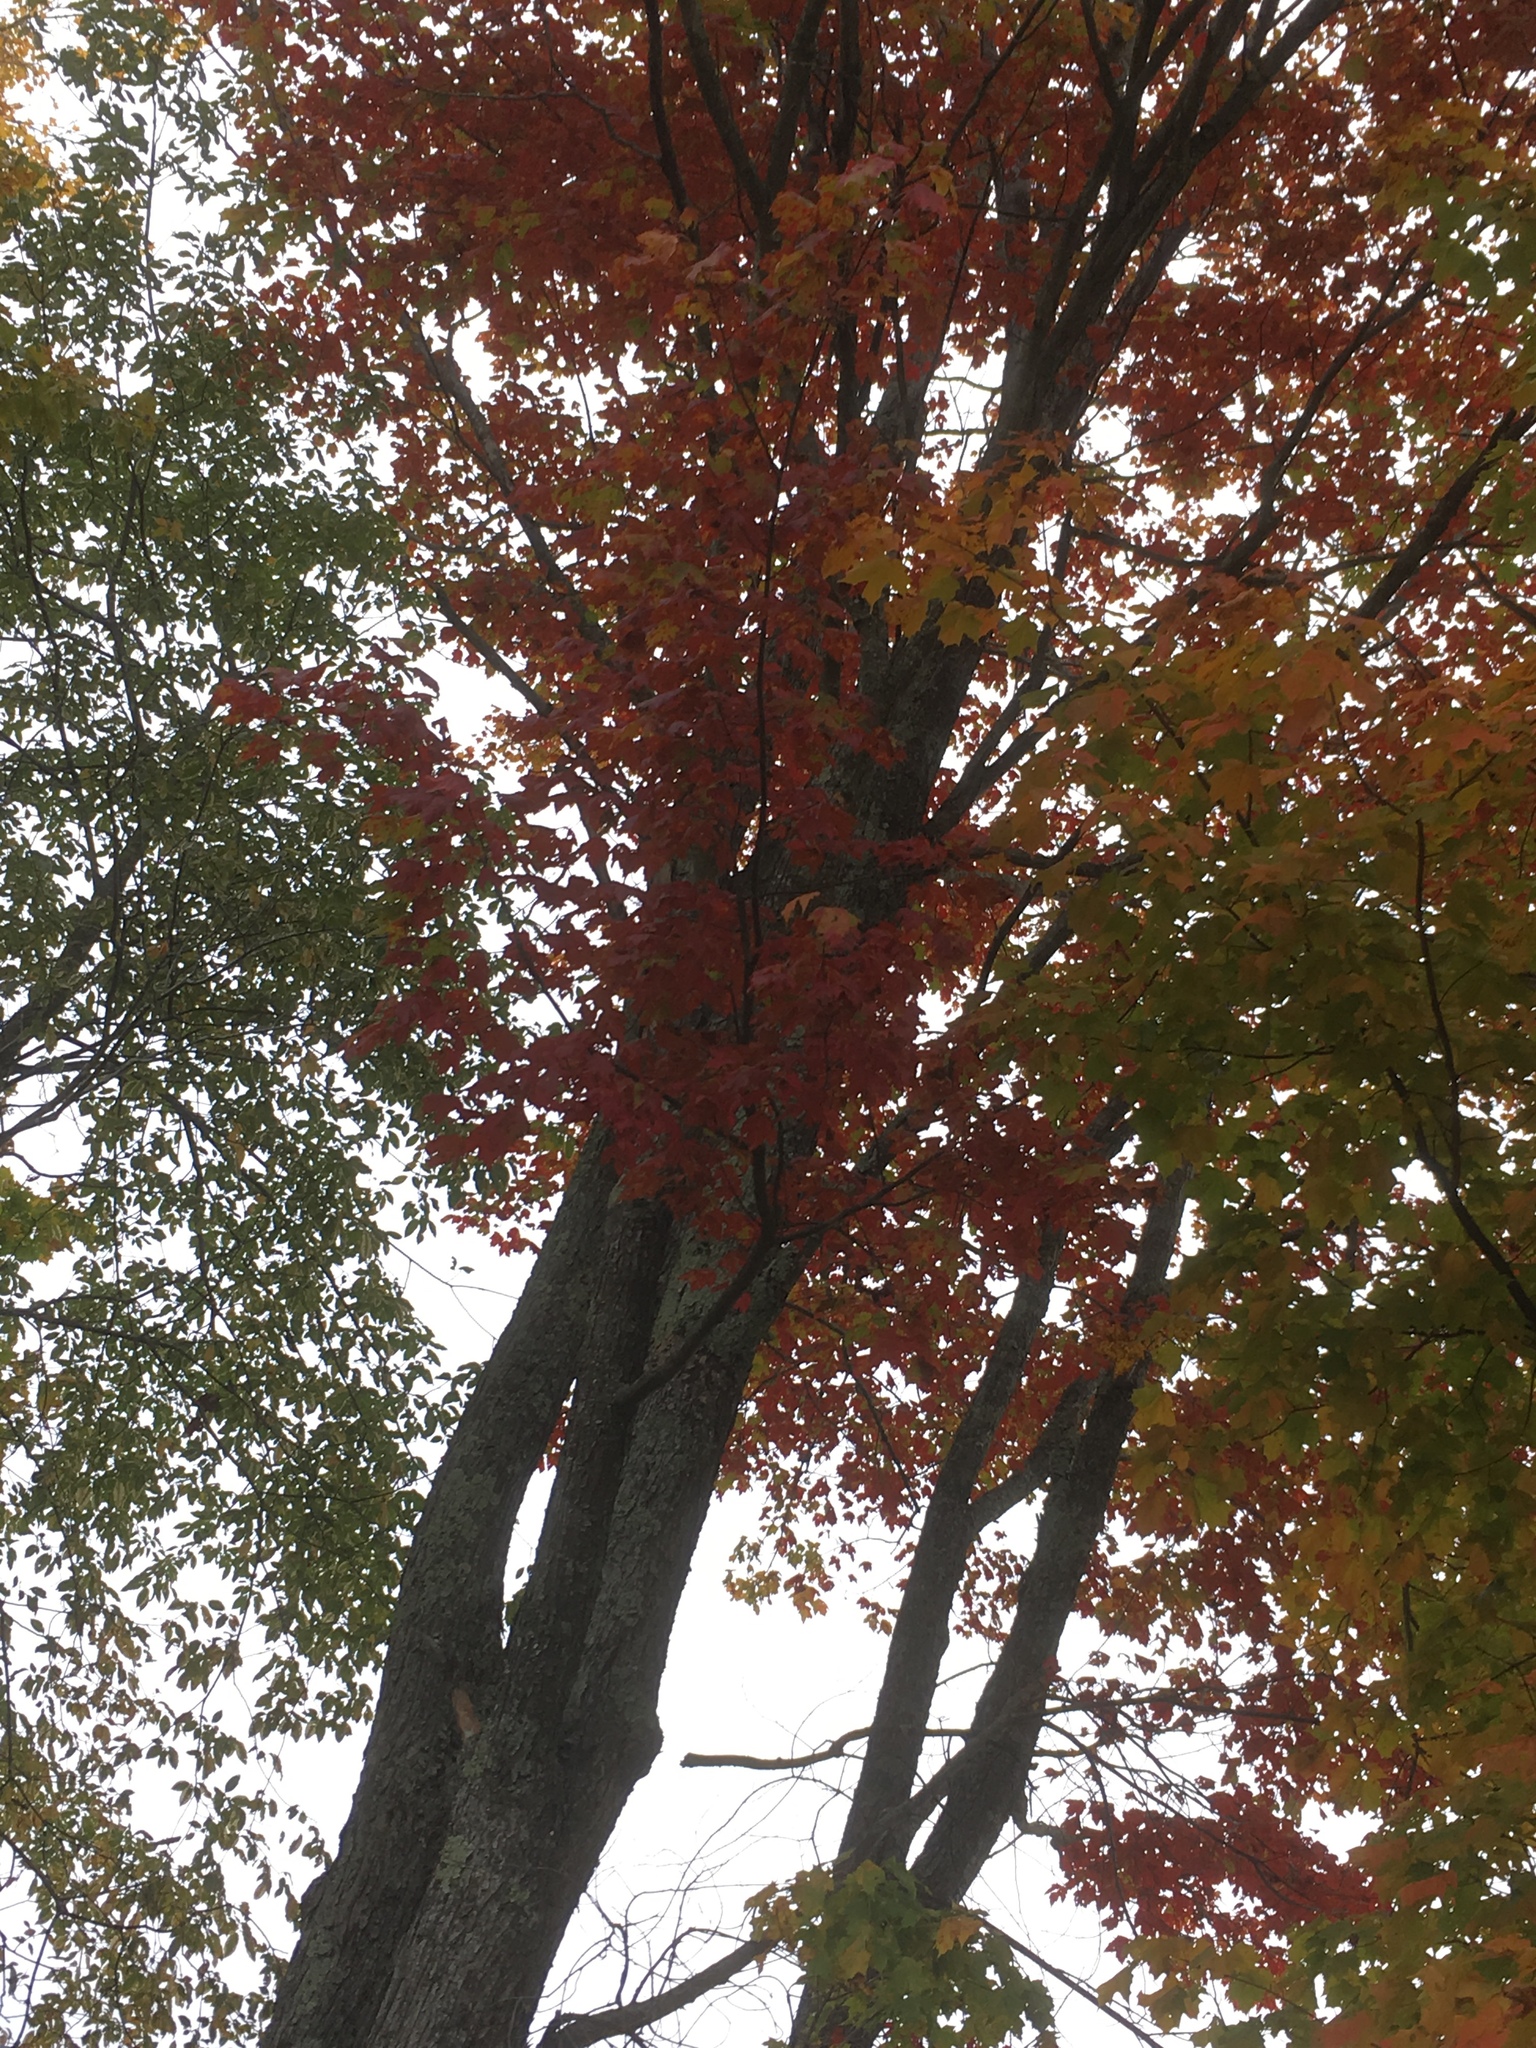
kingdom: Plantae
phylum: Tracheophyta
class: Magnoliopsida
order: Sapindales
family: Sapindaceae
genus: Acer
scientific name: Acer rubrum
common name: Red maple
